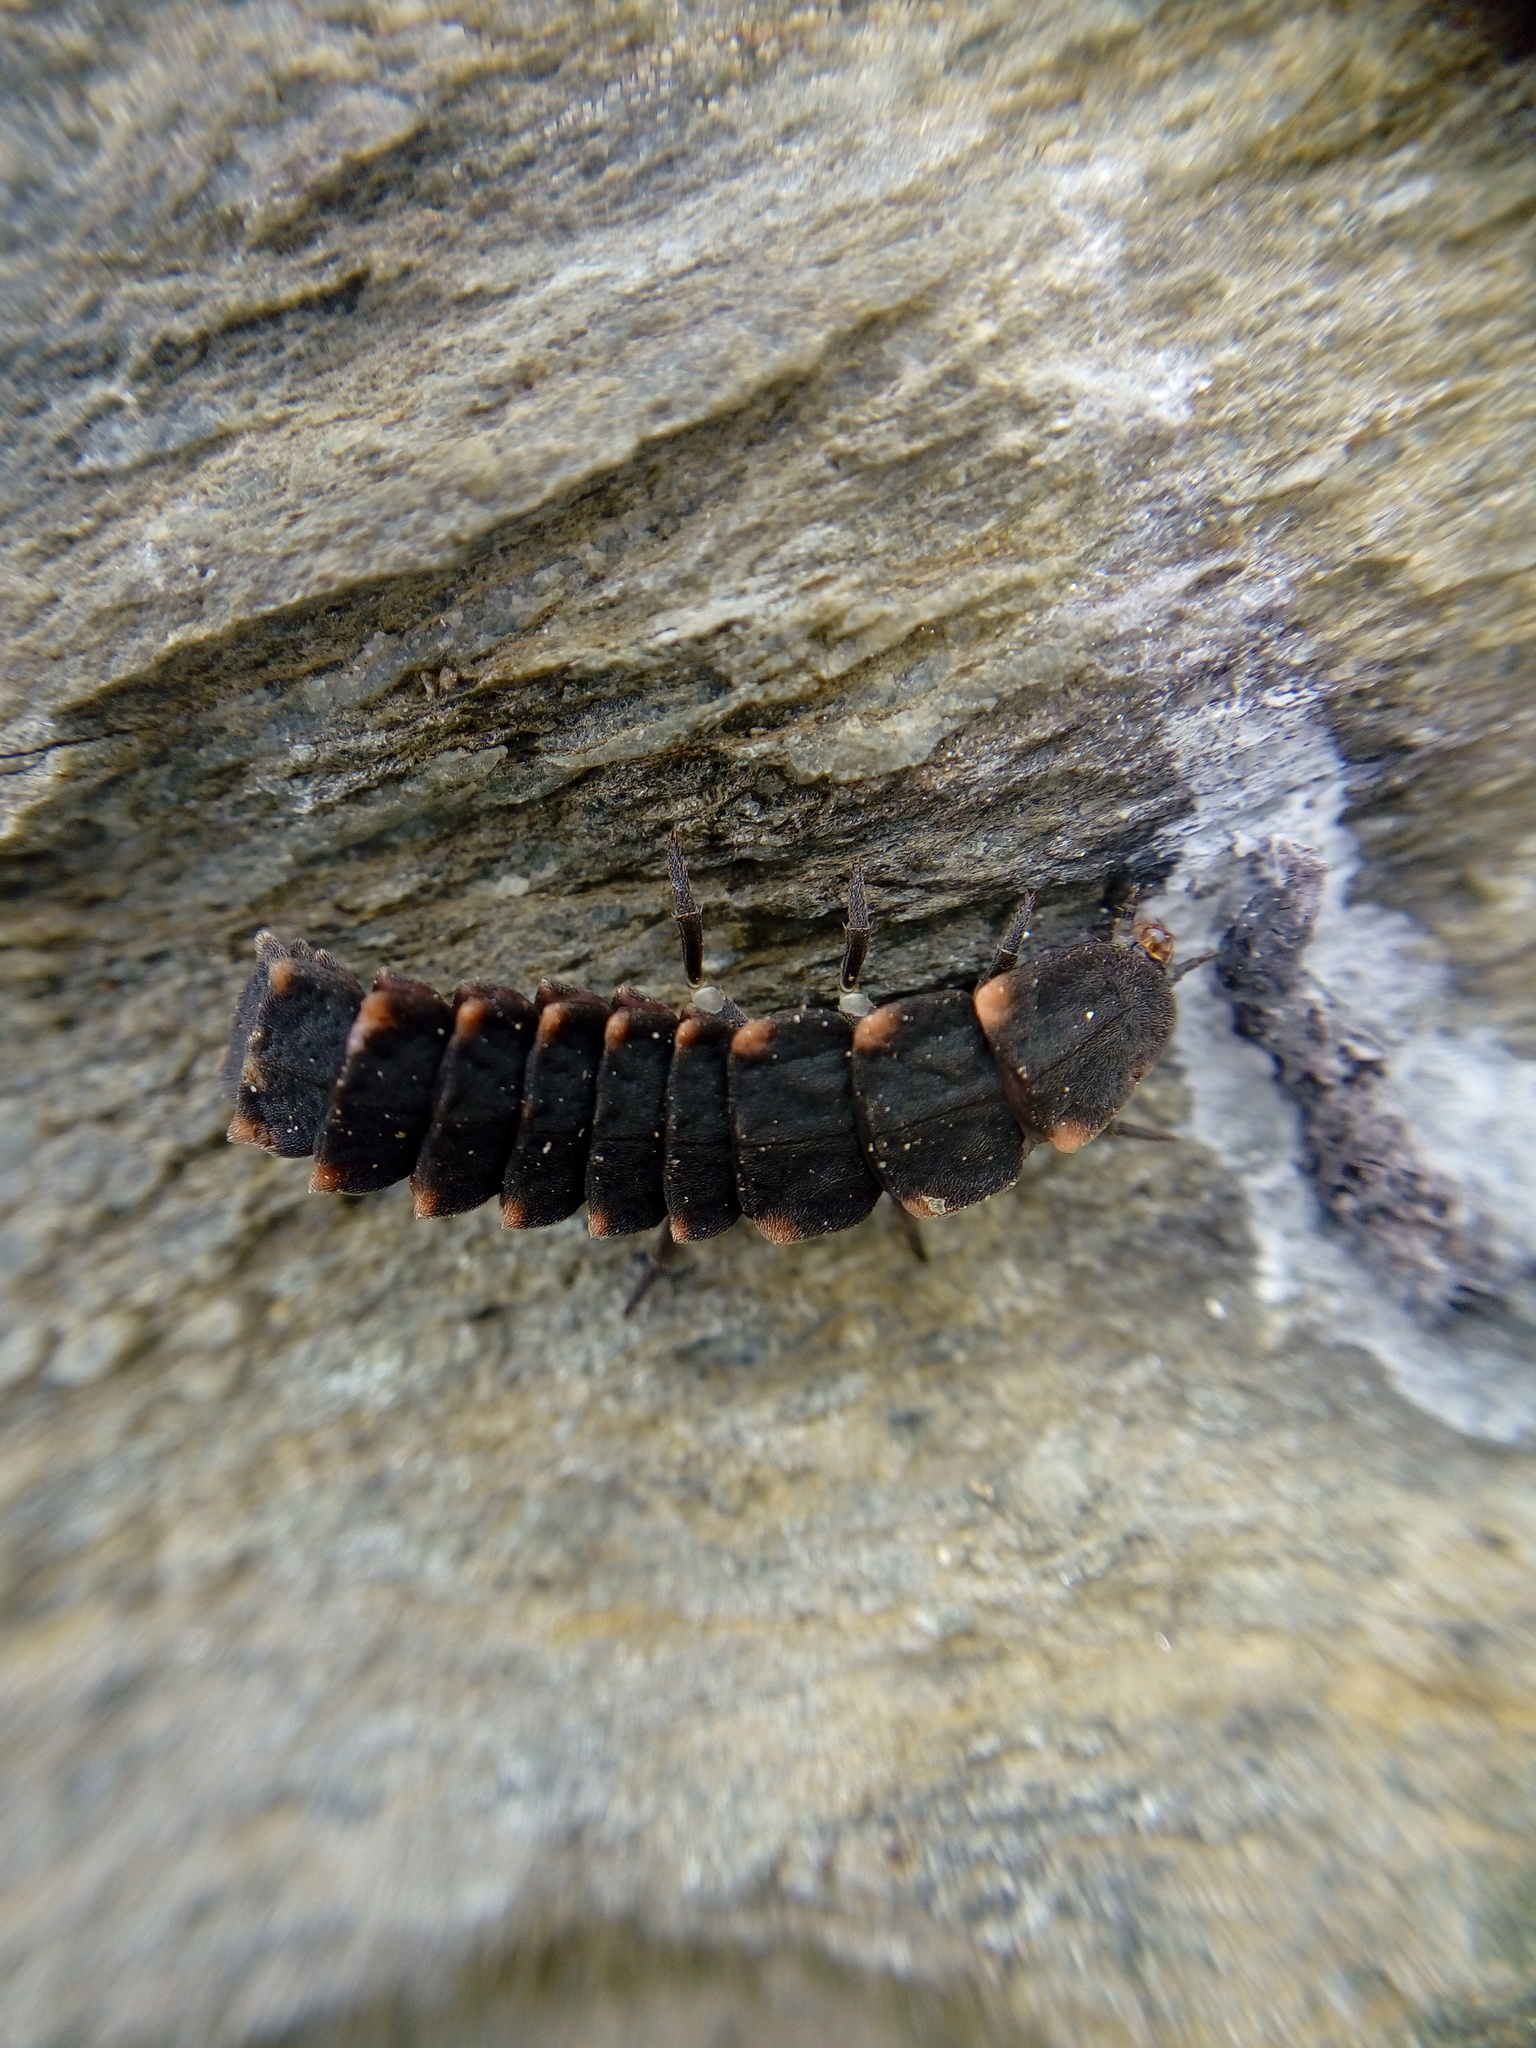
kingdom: Animalia
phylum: Arthropoda
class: Insecta
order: Coleoptera
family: Lampyridae
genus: Lampyris
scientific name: Lampyris noctiluca
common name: Glow-worm
